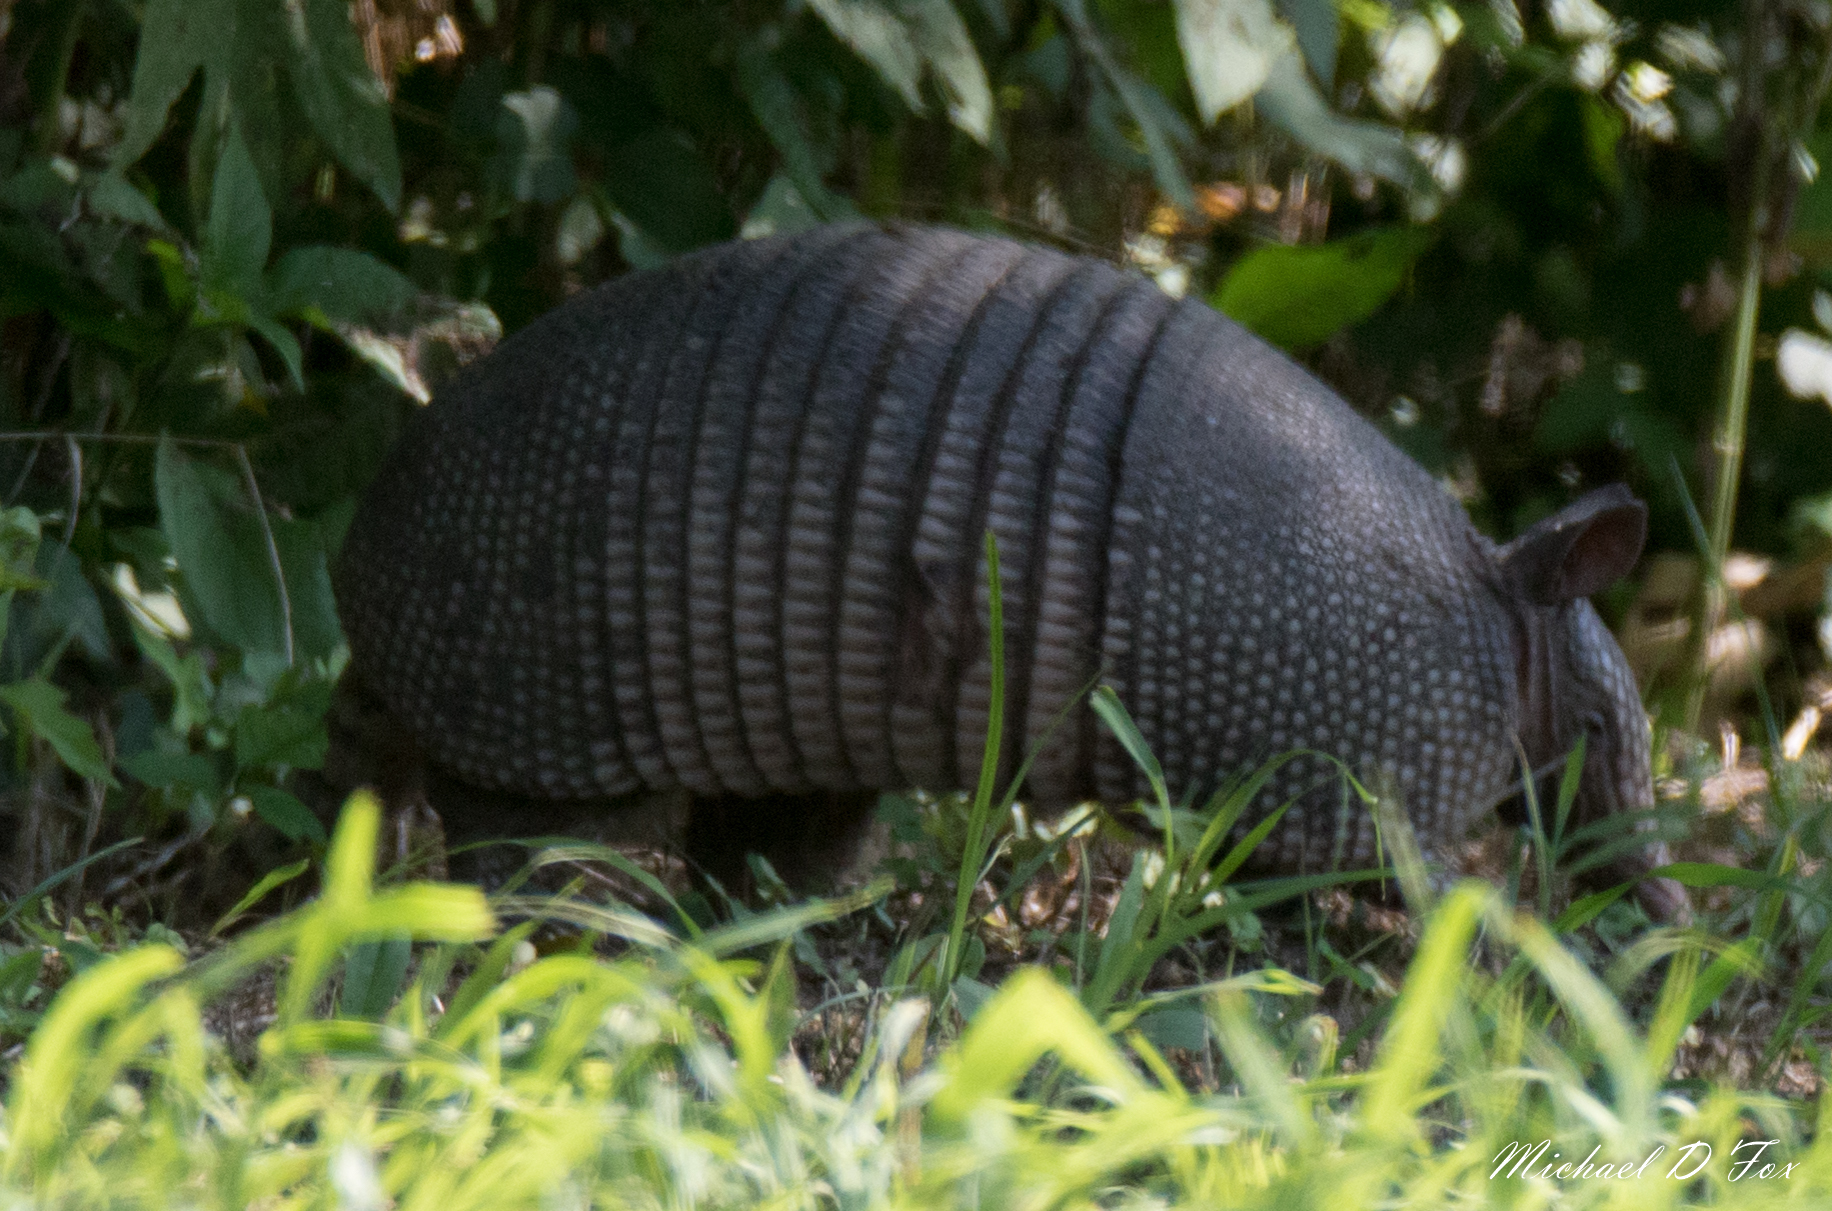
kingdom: Animalia
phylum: Chordata
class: Mammalia
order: Cingulata
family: Dasypodidae
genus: Dasypus
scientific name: Dasypus novemcinctus
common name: Nine-banded armadillo
